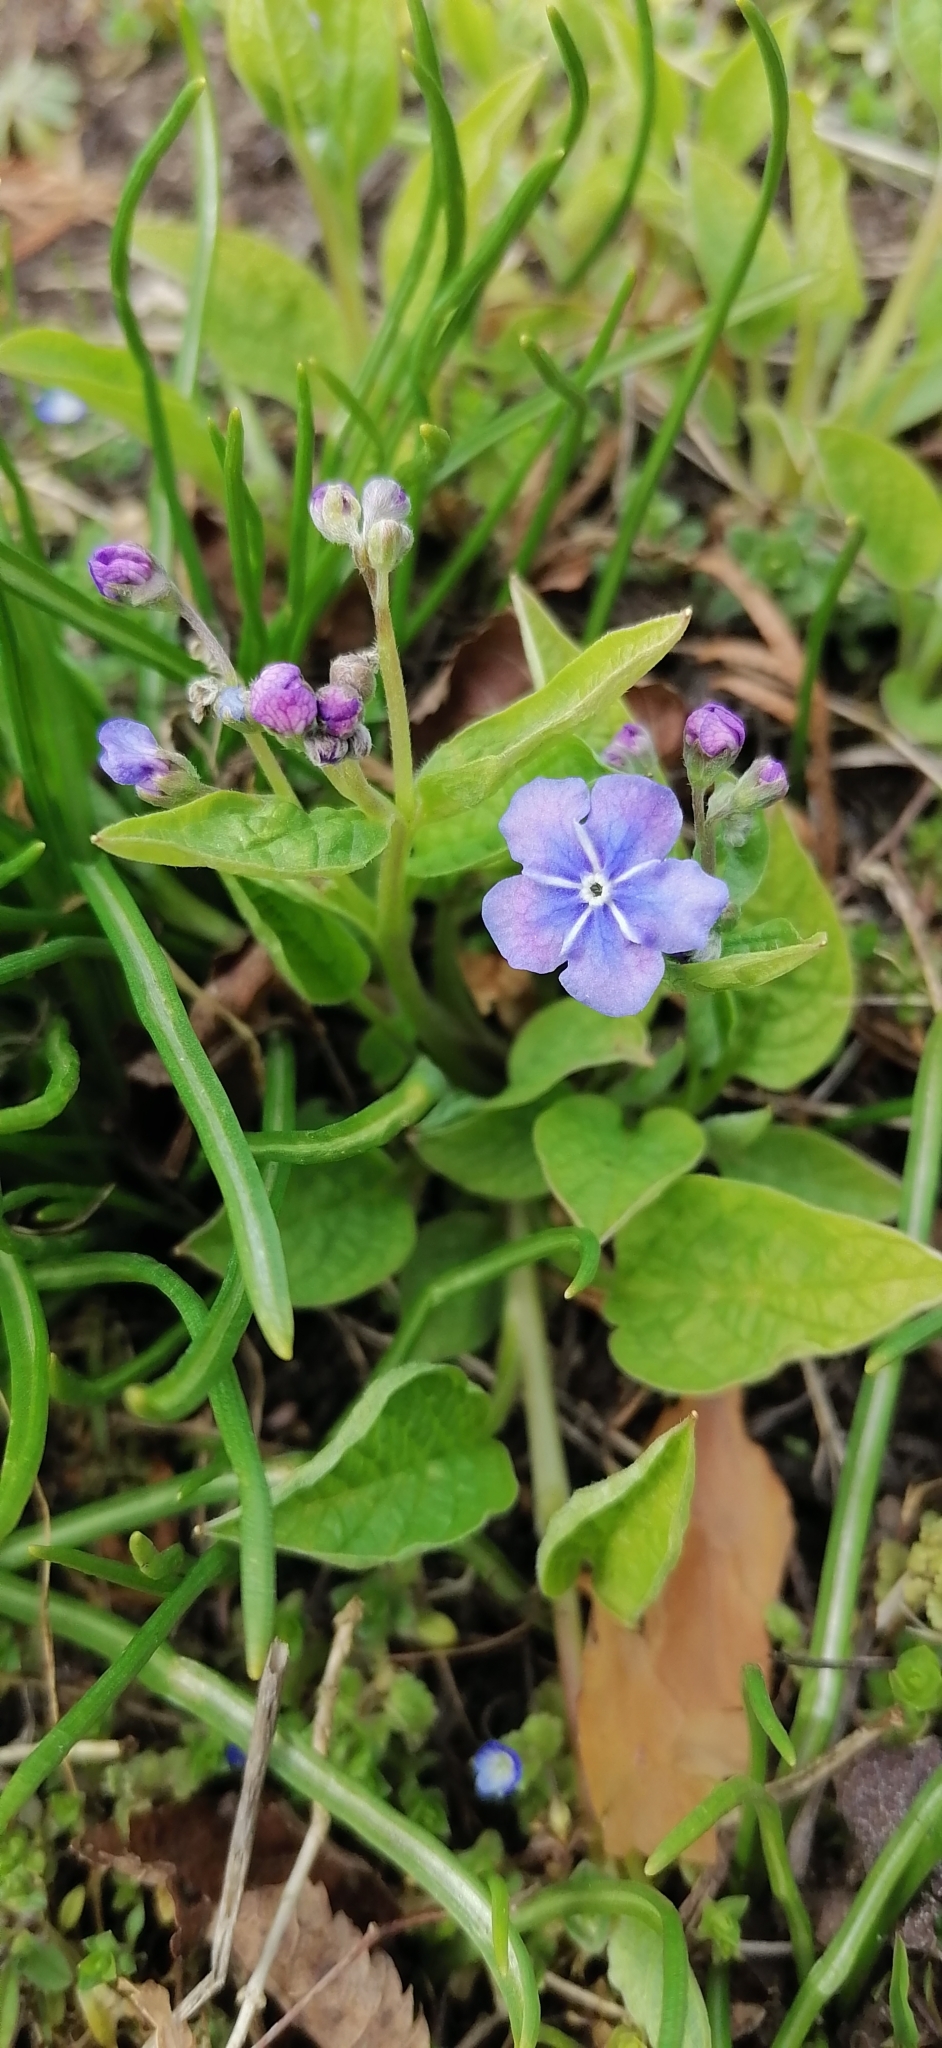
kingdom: Plantae
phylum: Tracheophyta
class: Magnoliopsida
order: Boraginales
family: Boraginaceae
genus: Omphalodes
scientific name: Omphalodes verna
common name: Blue-eyed-mary
